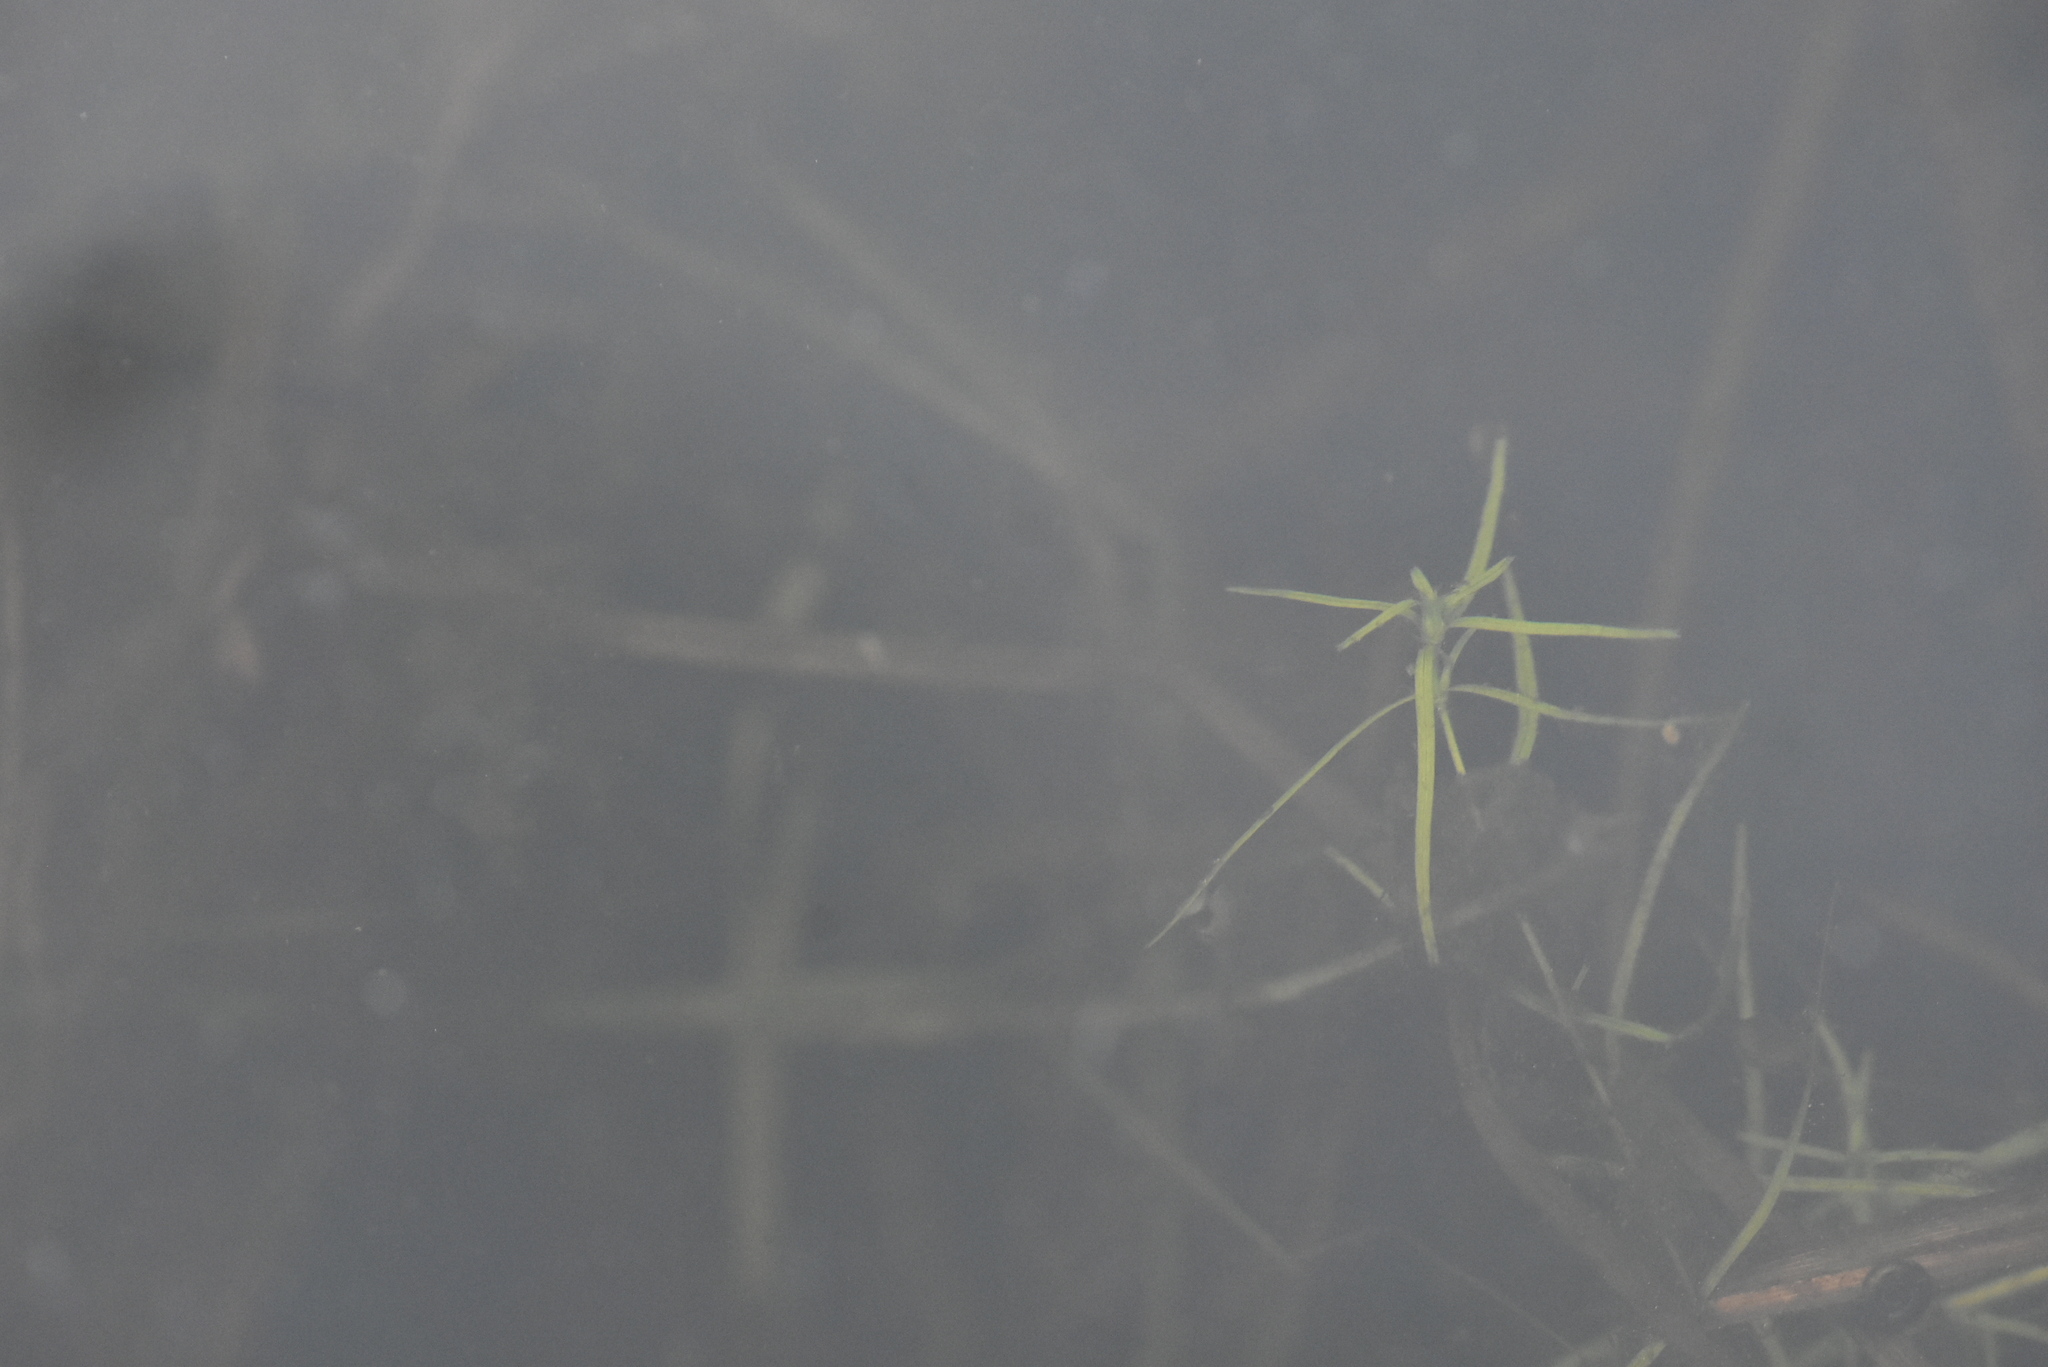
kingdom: Plantae
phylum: Tracheophyta
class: Magnoliopsida
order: Lamiales
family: Plantaginaceae
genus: Callitriche
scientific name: Callitriche
